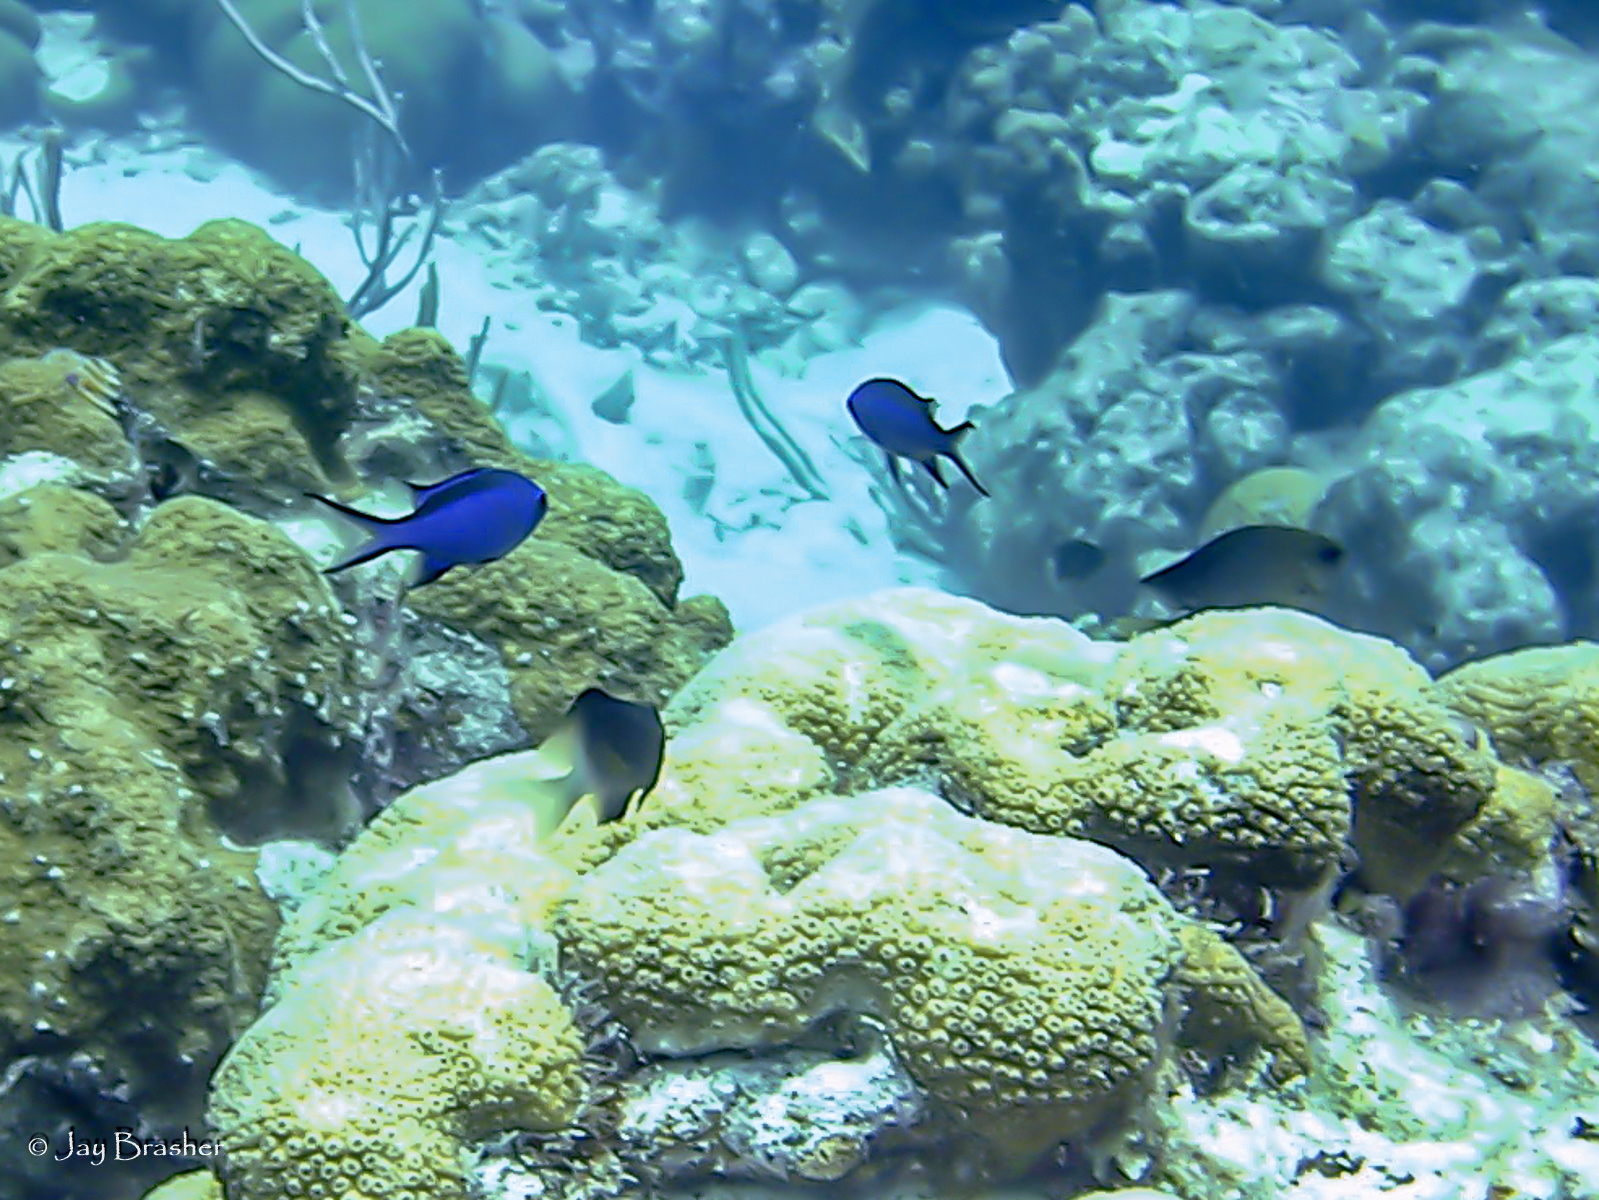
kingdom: Animalia
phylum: Chordata
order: Perciformes
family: Pomacentridae
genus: Chromis
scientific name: Chromis cyanea
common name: Blue chromis
